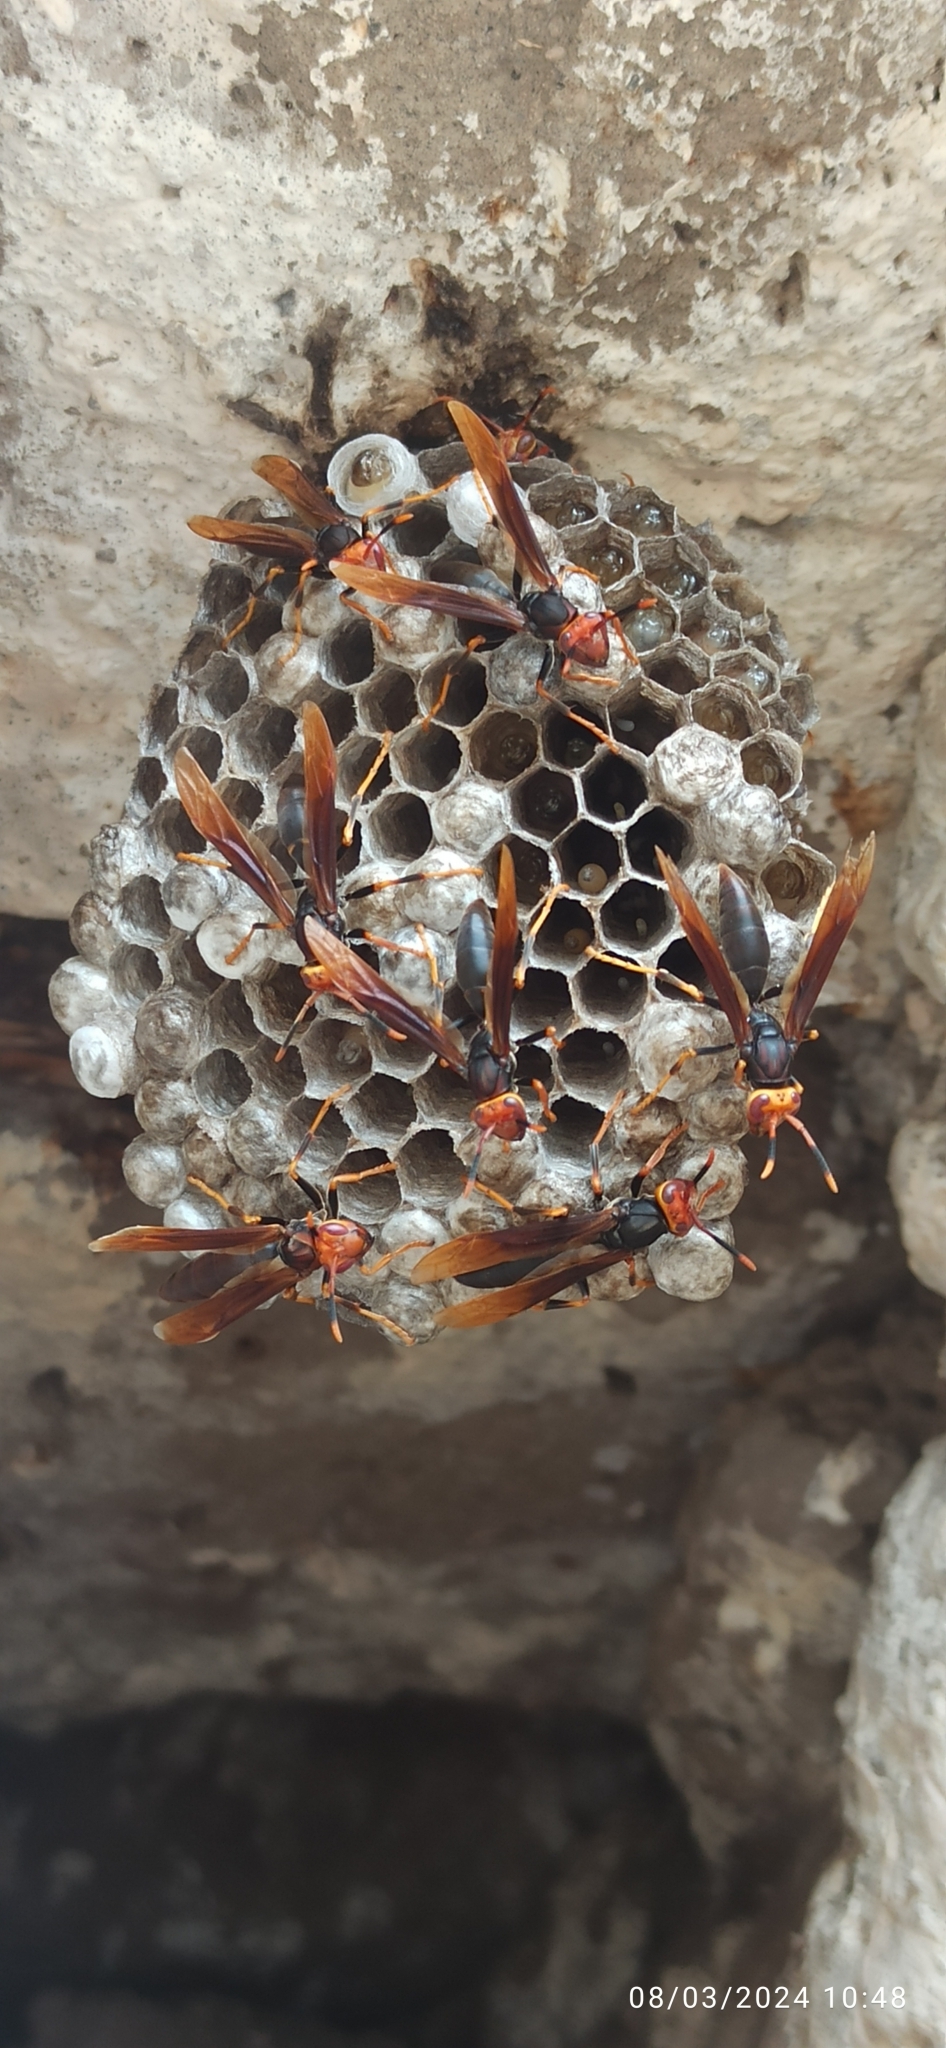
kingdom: Animalia
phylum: Arthropoda
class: Insecta
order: Hymenoptera
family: Eumenidae
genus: Polistes
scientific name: Polistes infuscatus
